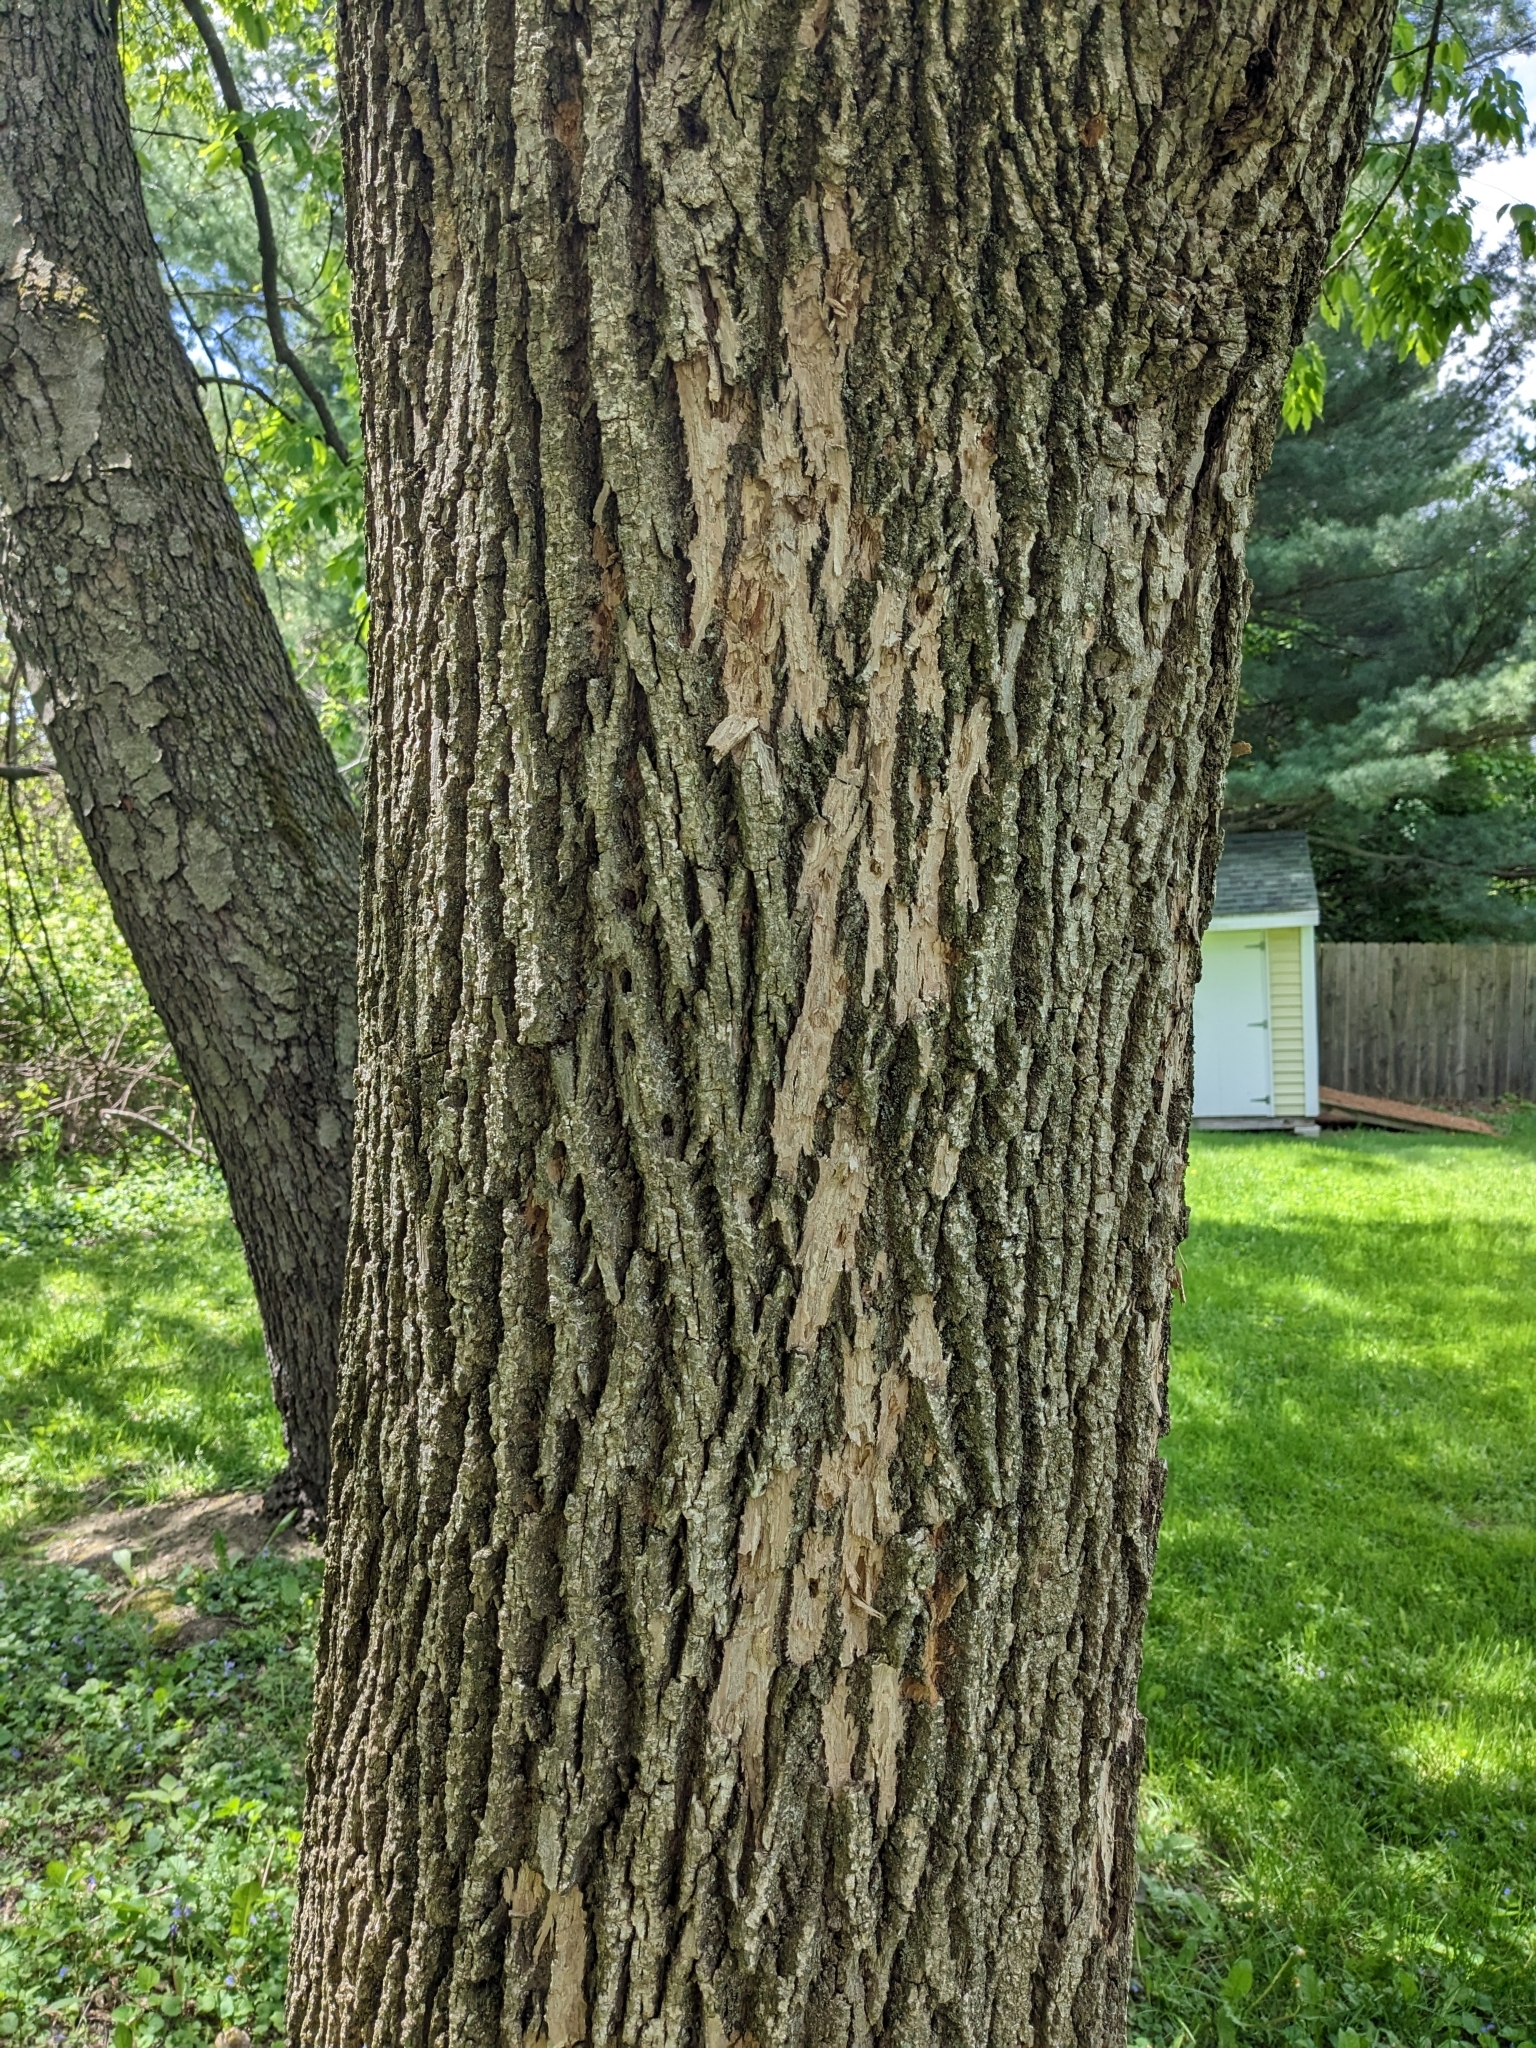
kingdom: Animalia
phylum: Arthropoda
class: Insecta
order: Coleoptera
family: Buprestidae
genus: Agrilus
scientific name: Agrilus planipennis
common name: Emerald ash borer
